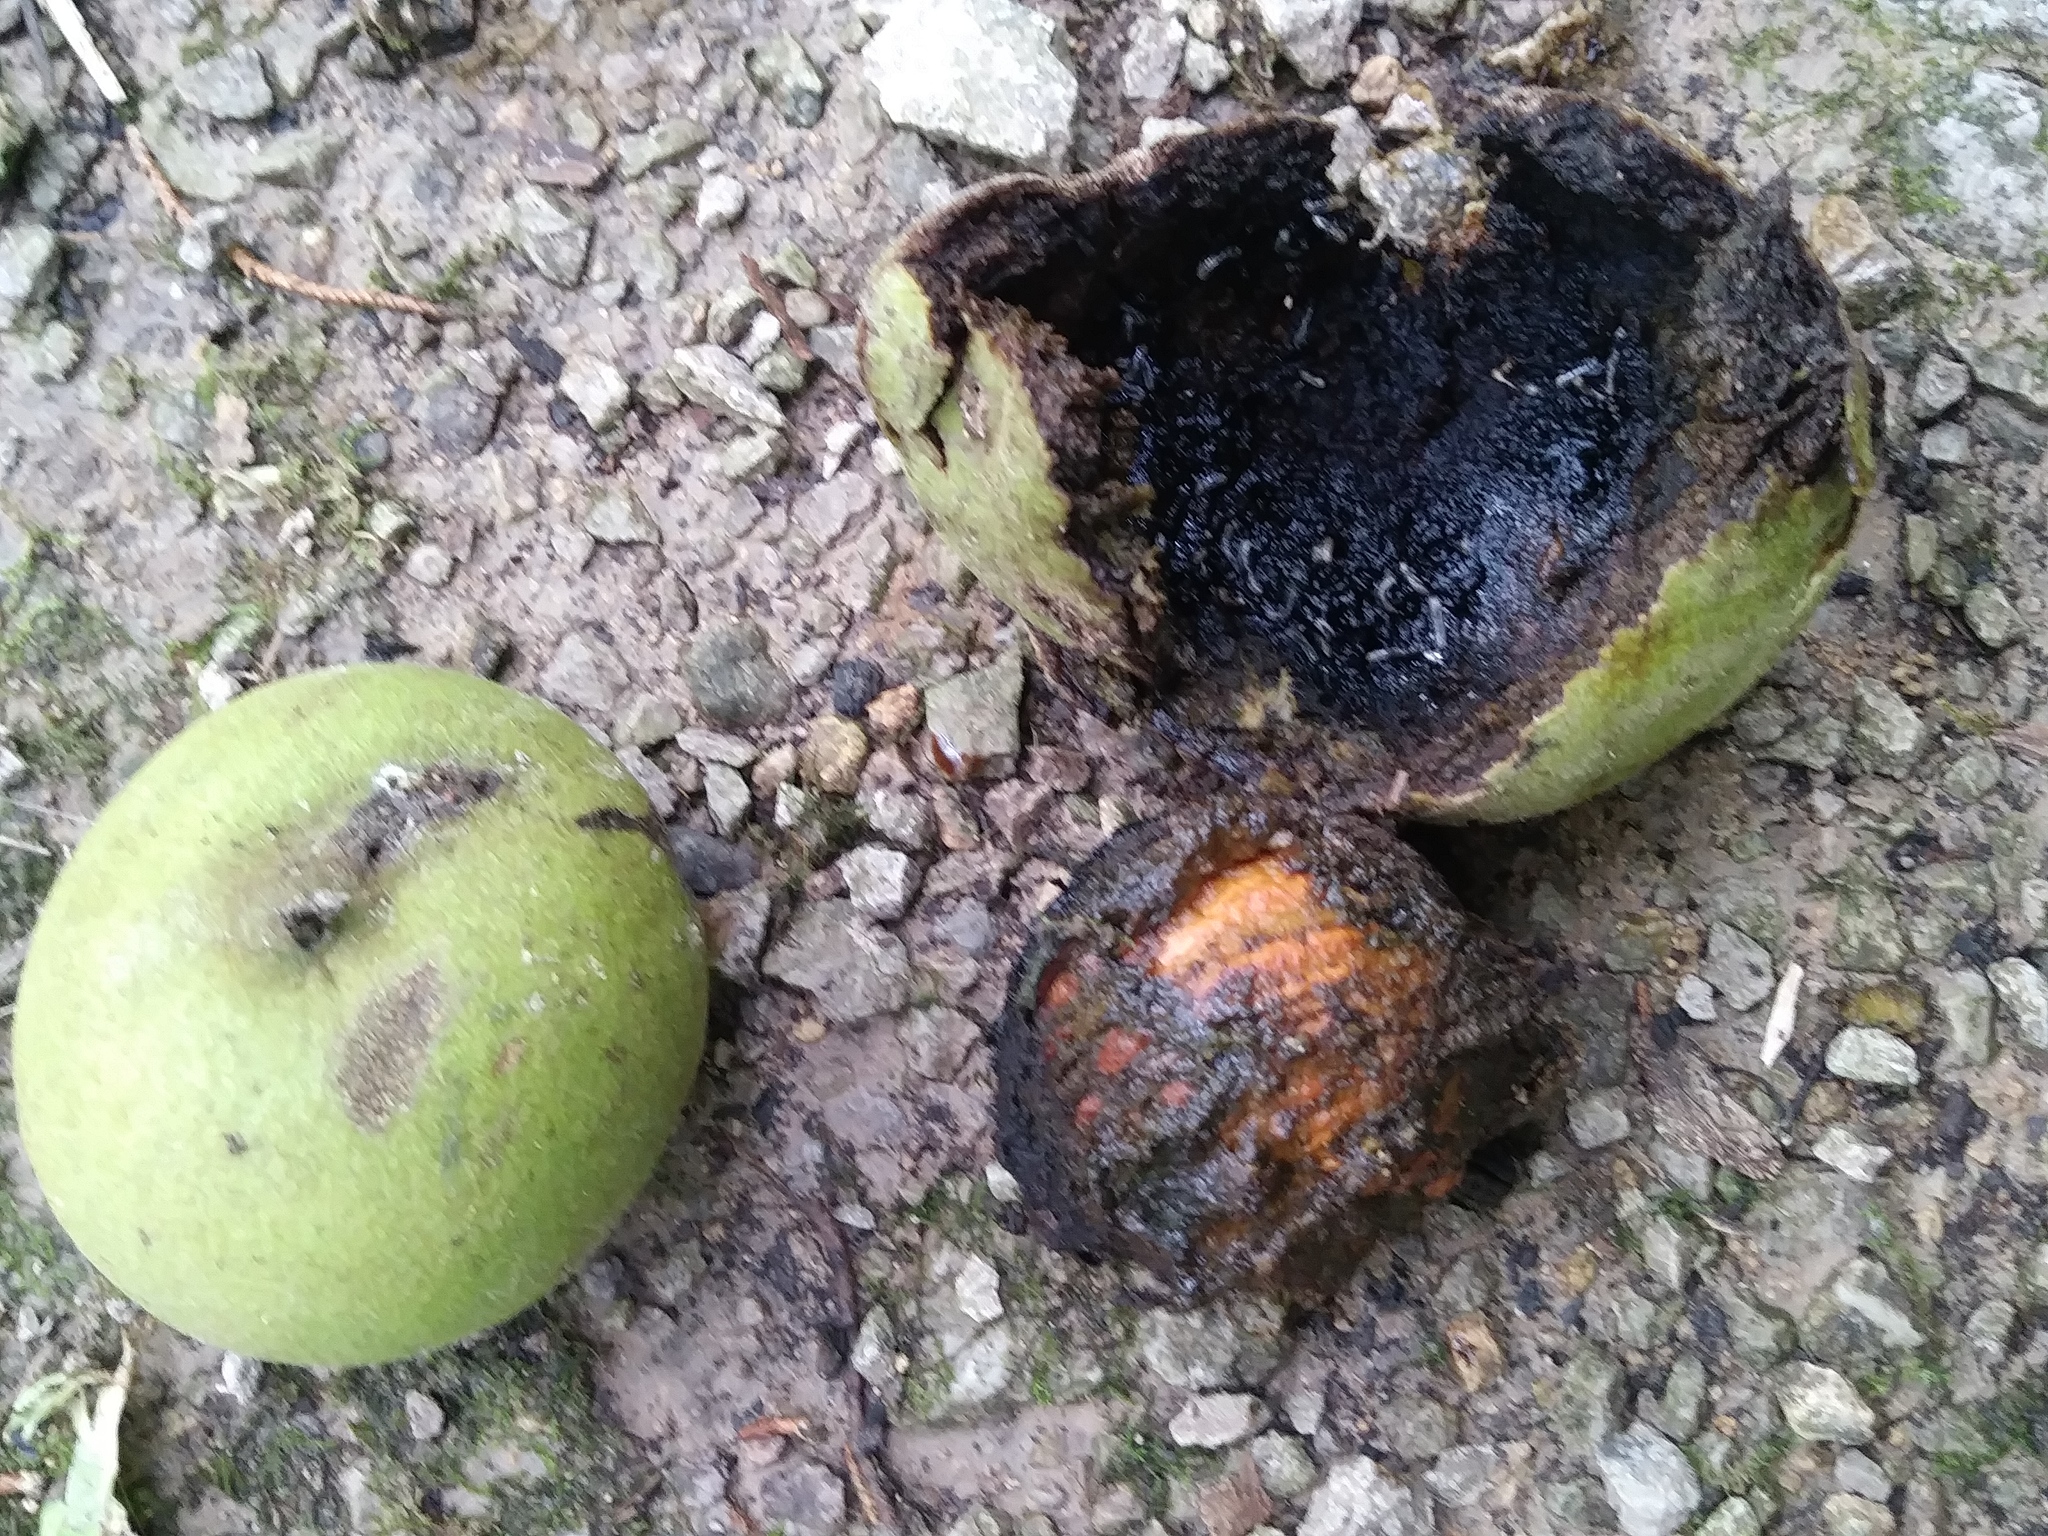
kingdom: Plantae
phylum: Tracheophyta
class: Magnoliopsida
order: Fagales
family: Juglandaceae
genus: Juglans
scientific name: Juglans nigra
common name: Black walnut
